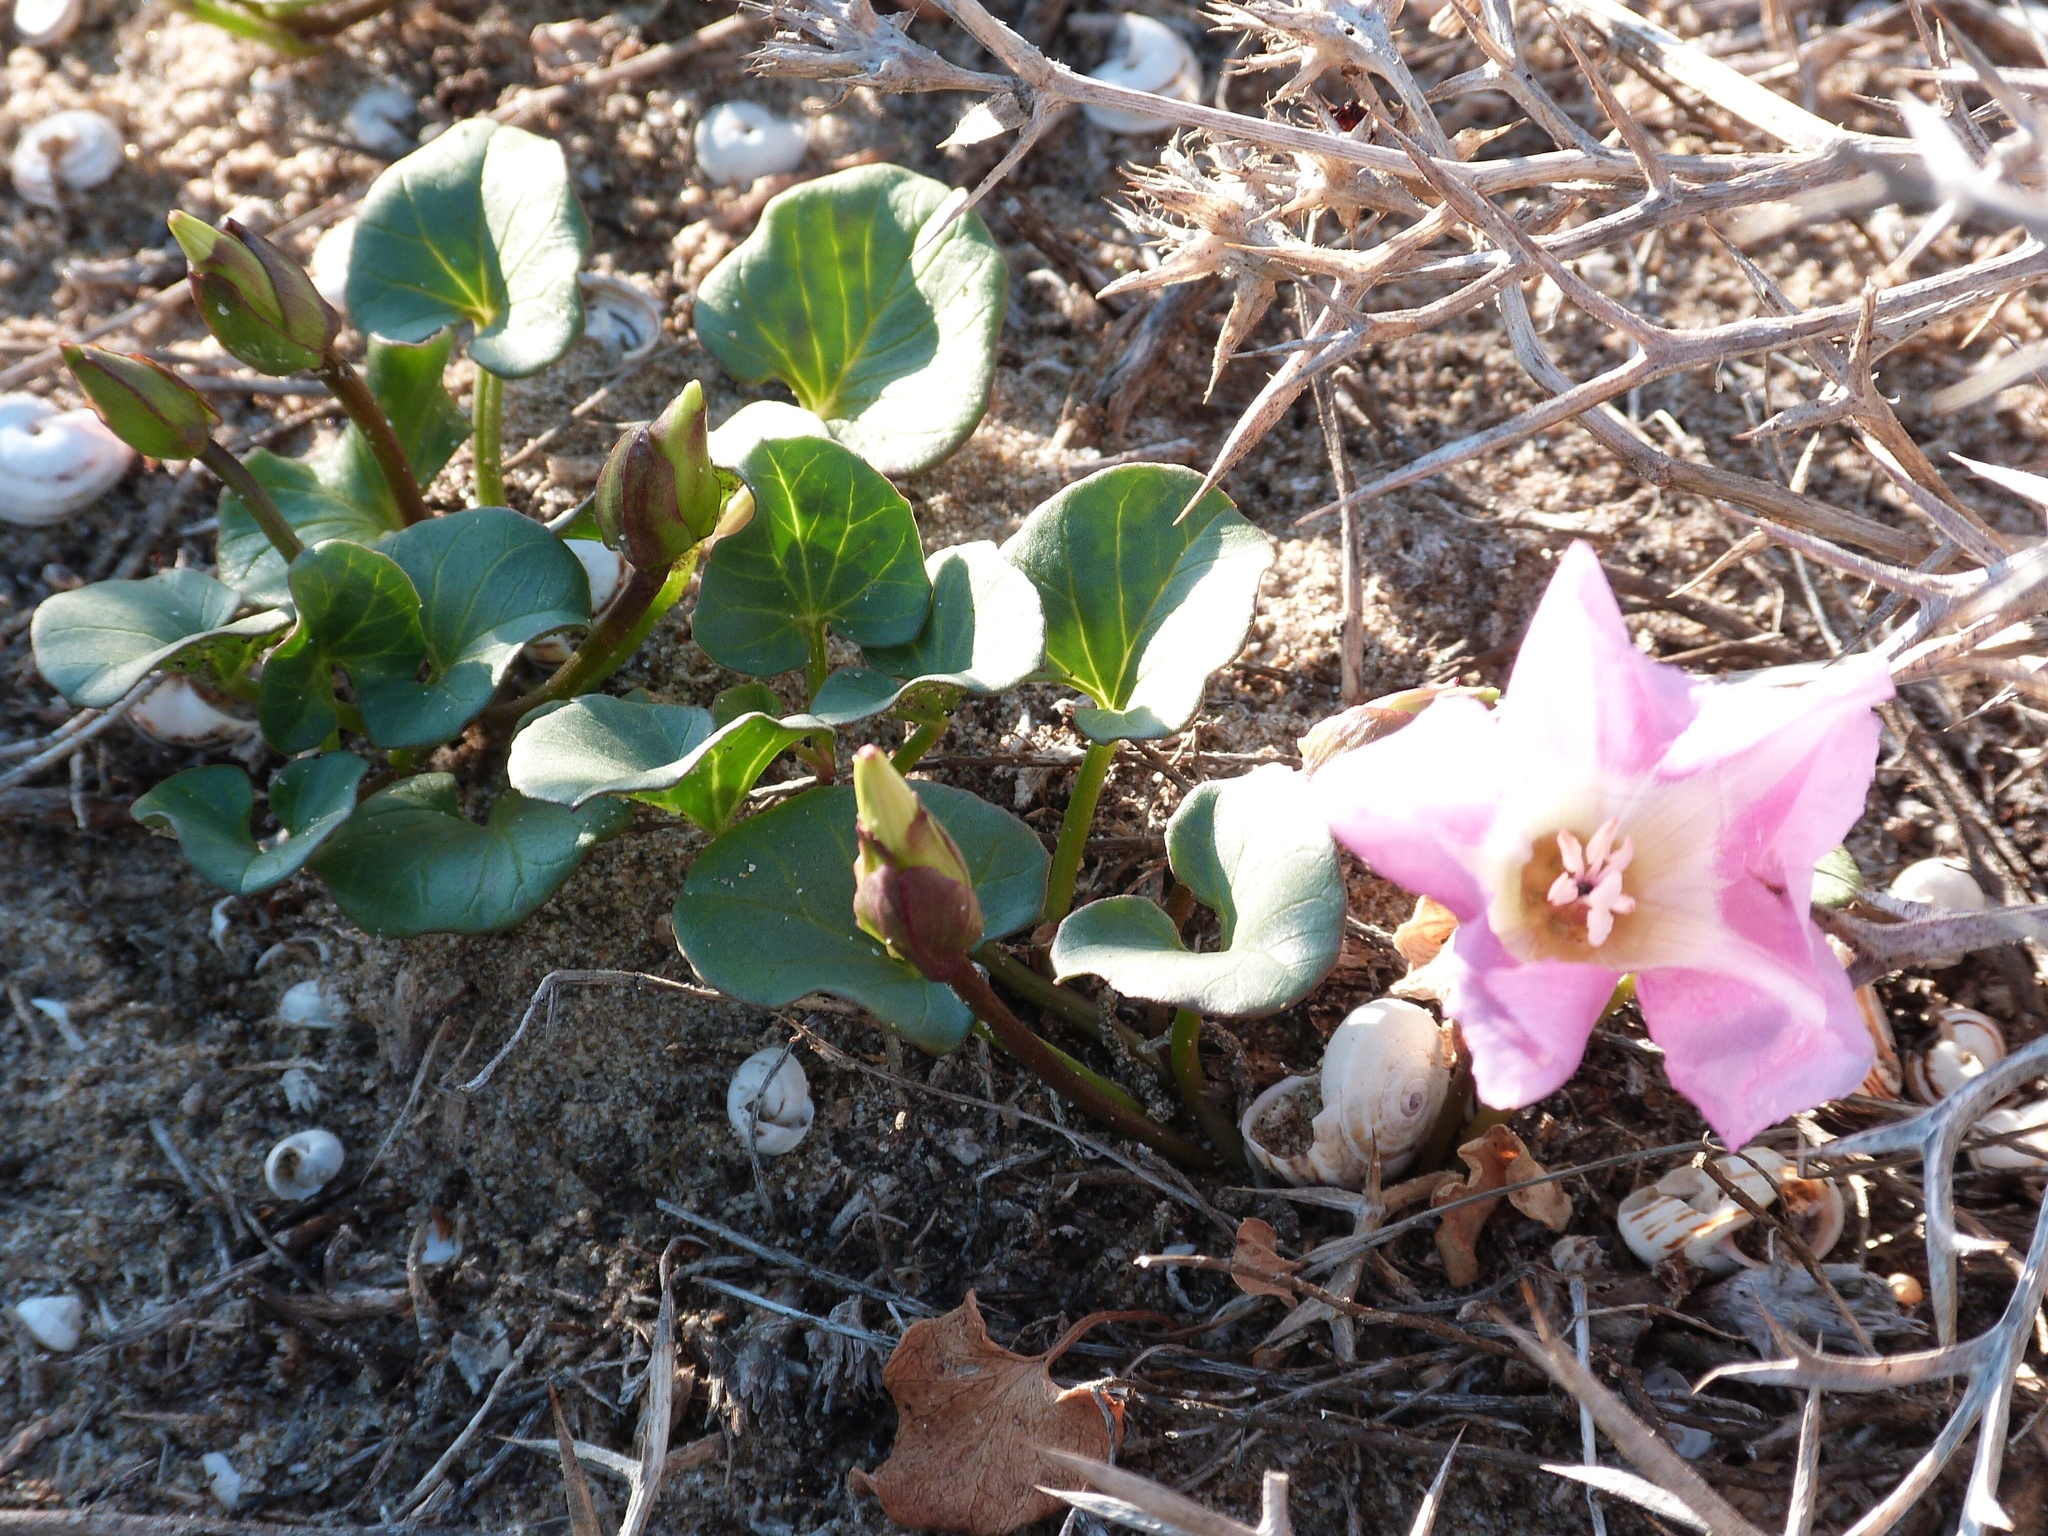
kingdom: Plantae
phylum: Tracheophyta
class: Magnoliopsida
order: Solanales
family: Convolvulaceae
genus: Calystegia
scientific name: Calystegia soldanella
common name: Sea bindweed
